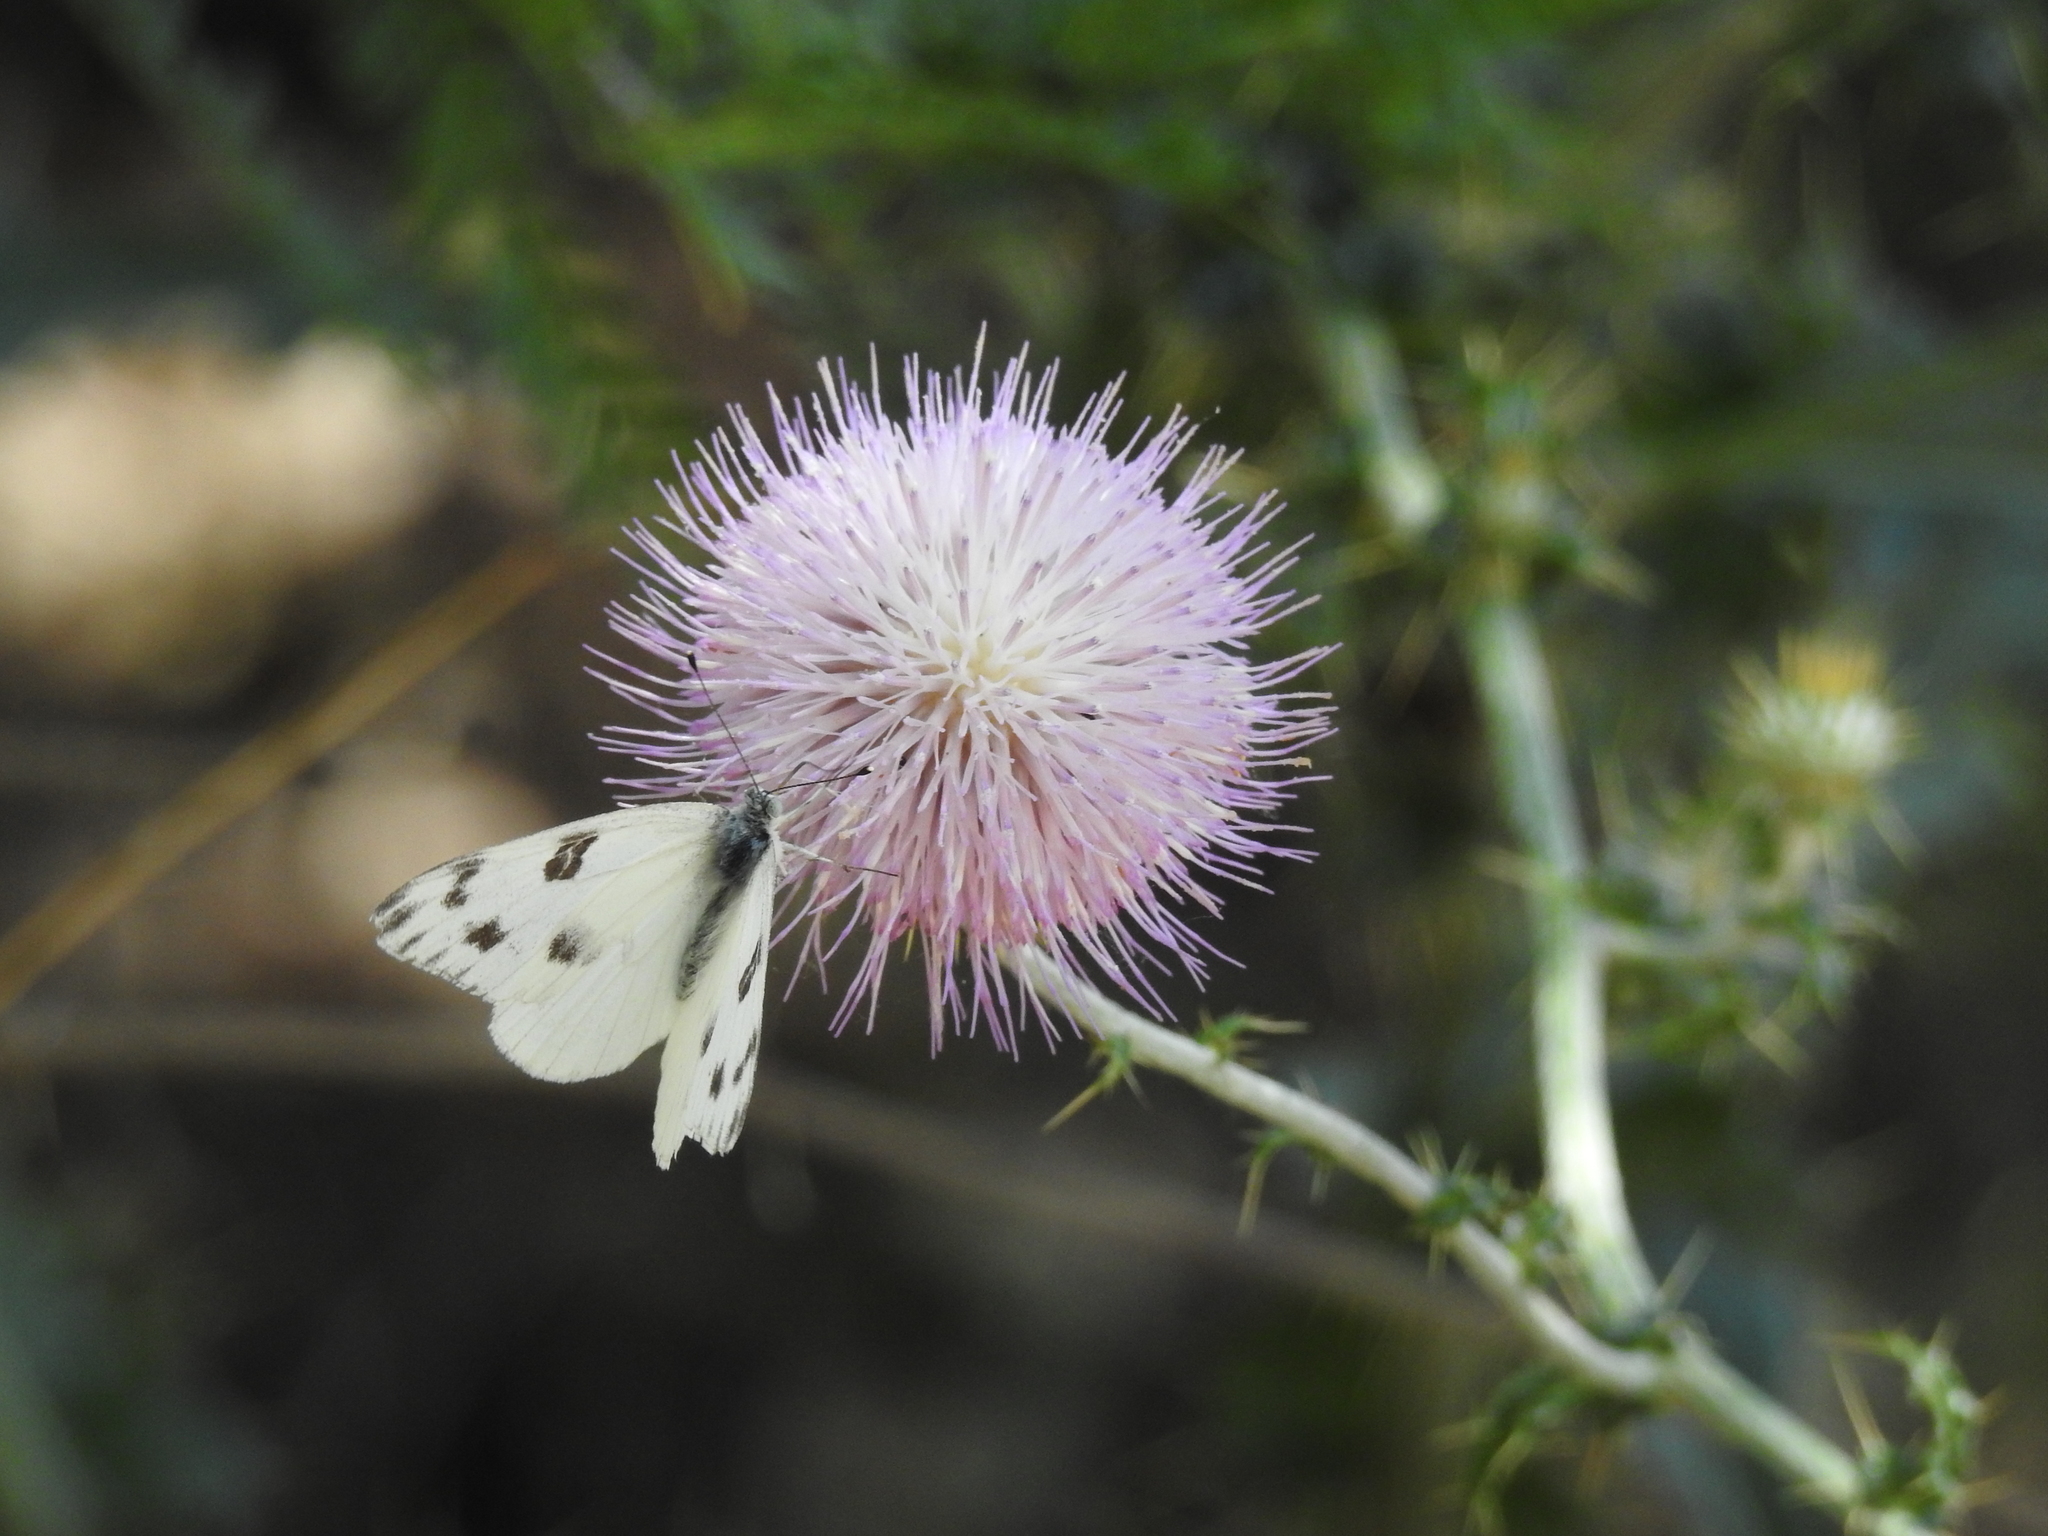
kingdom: Animalia
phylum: Arthropoda
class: Insecta
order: Lepidoptera
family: Pieridae
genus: Pontia
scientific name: Pontia protodice
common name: Checkered white
